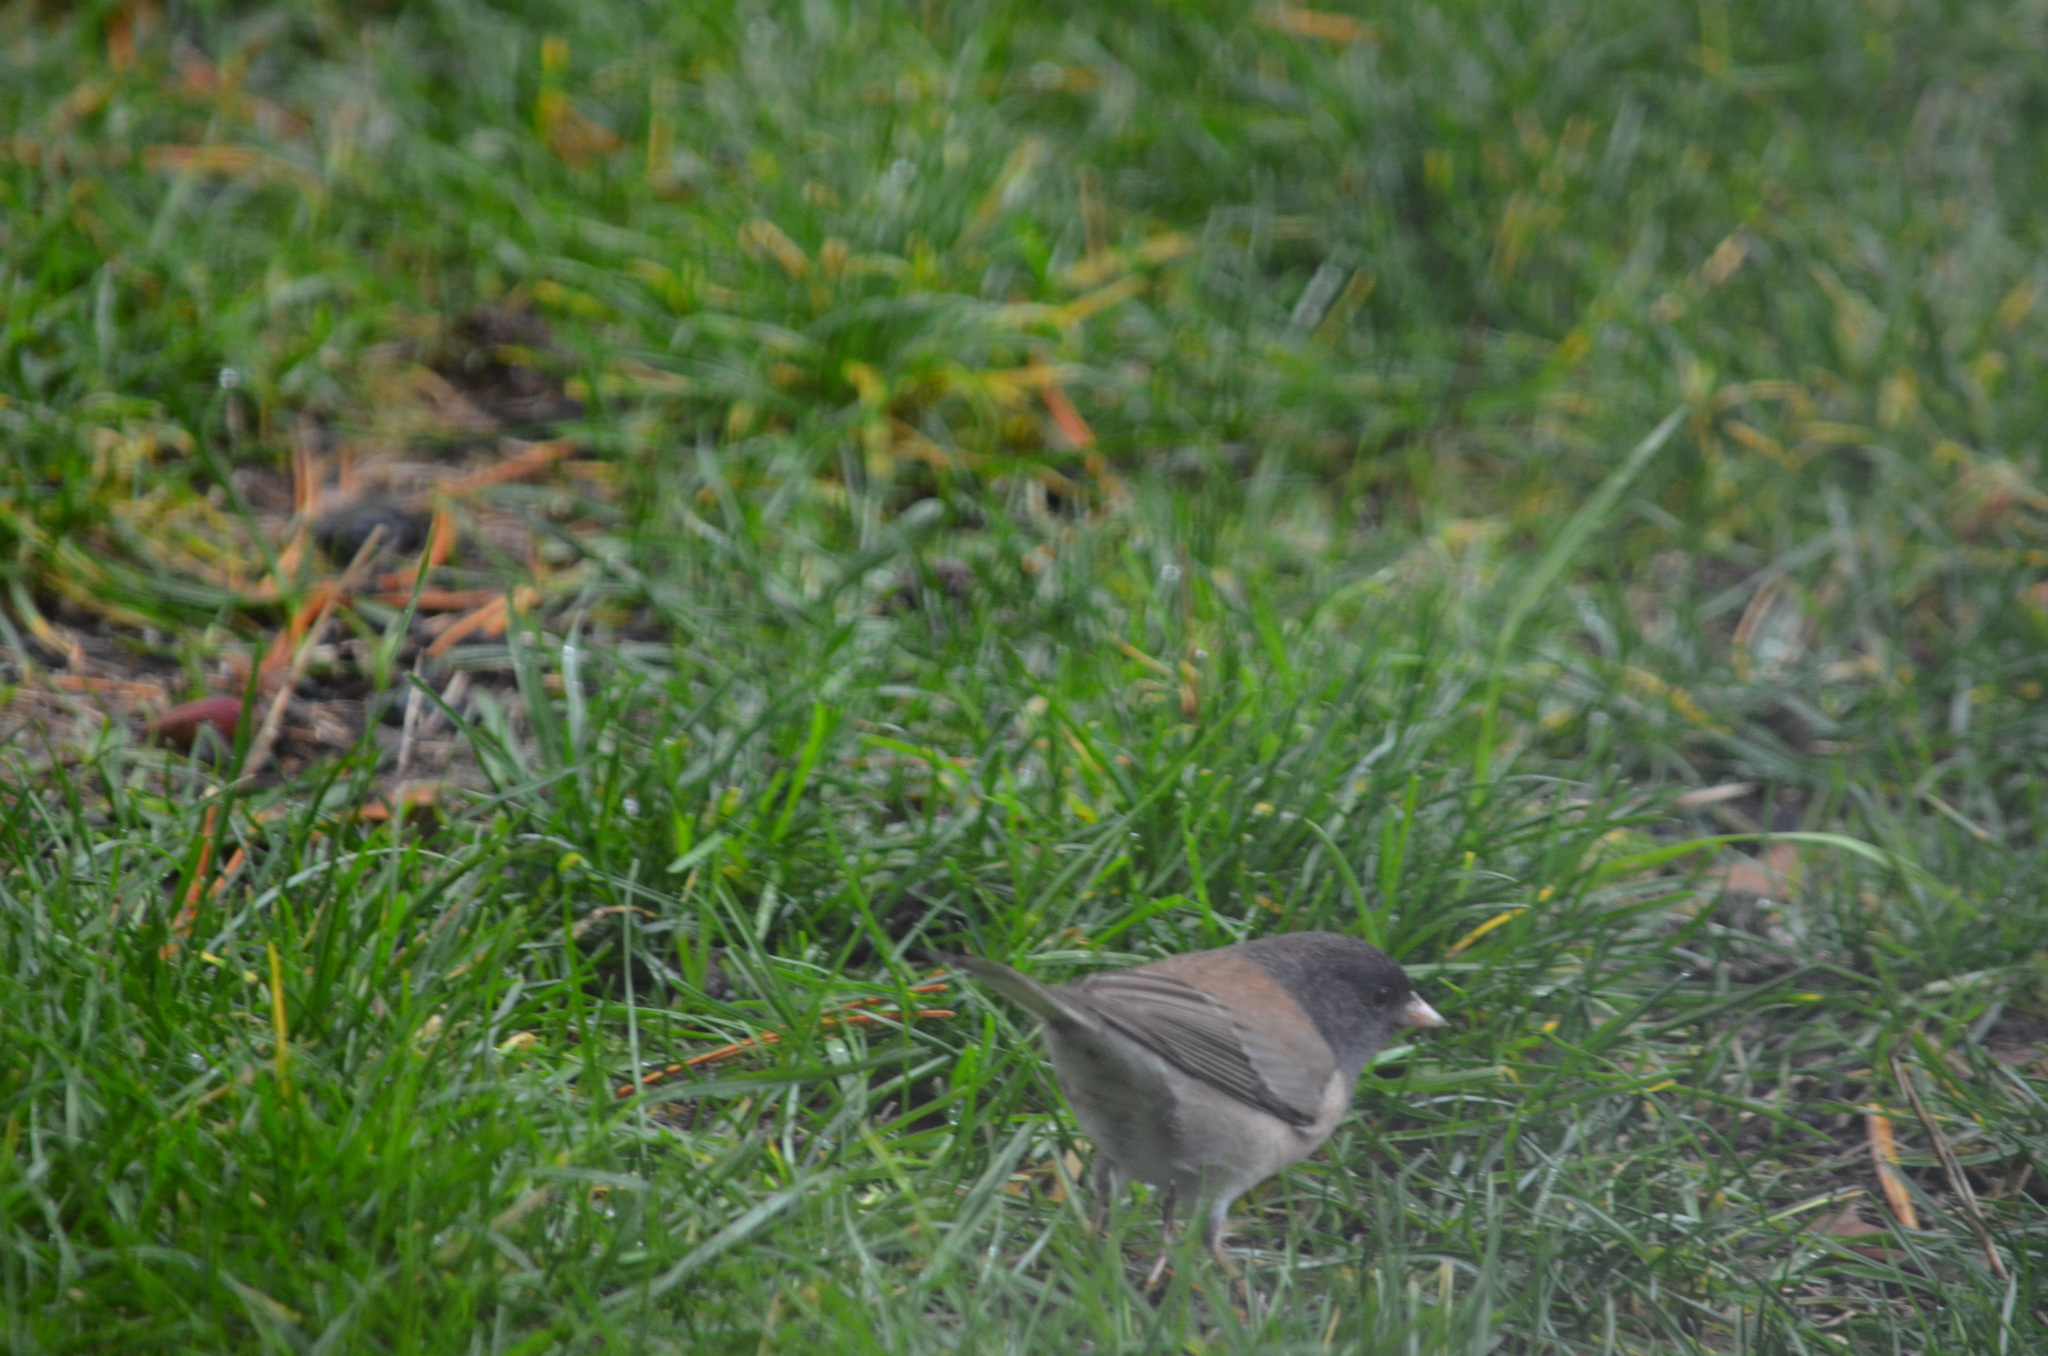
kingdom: Animalia
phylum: Chordata
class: Aves
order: Passeriformes
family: Passerellidae
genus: Junco
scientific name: Junco hyemalis
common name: Dark-eyed junco
